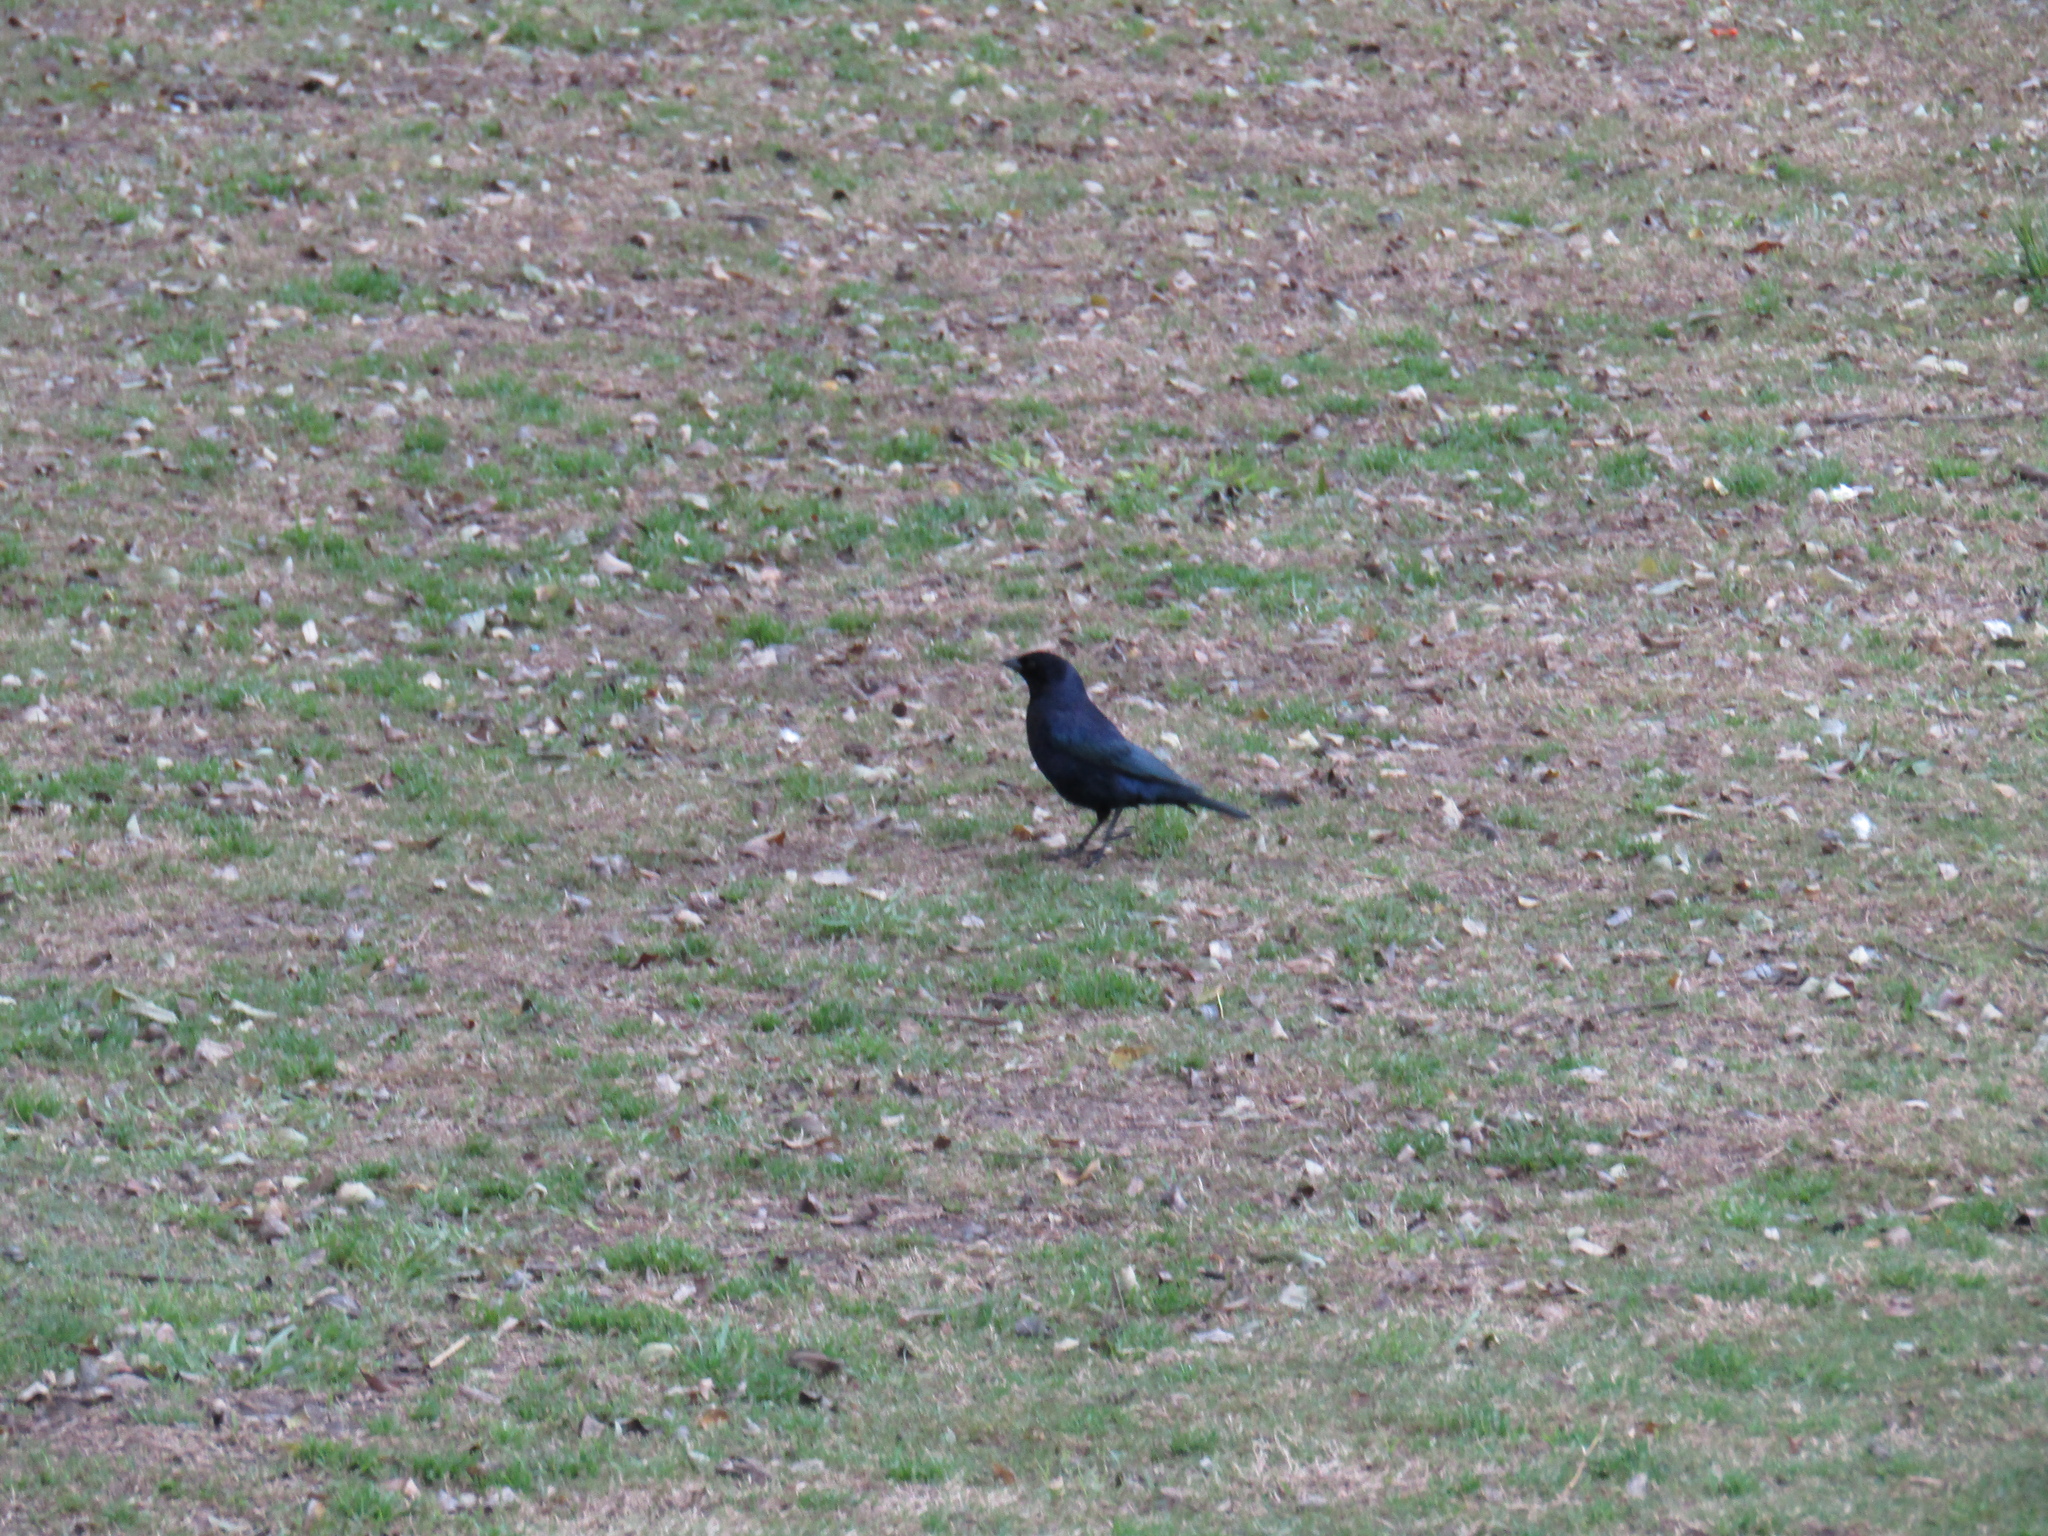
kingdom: Animalia
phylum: Chordata
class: Aves
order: Passeriformes
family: Icteridae
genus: Molothrus
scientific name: Molothrus bonariensis
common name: Shiny cowbird
